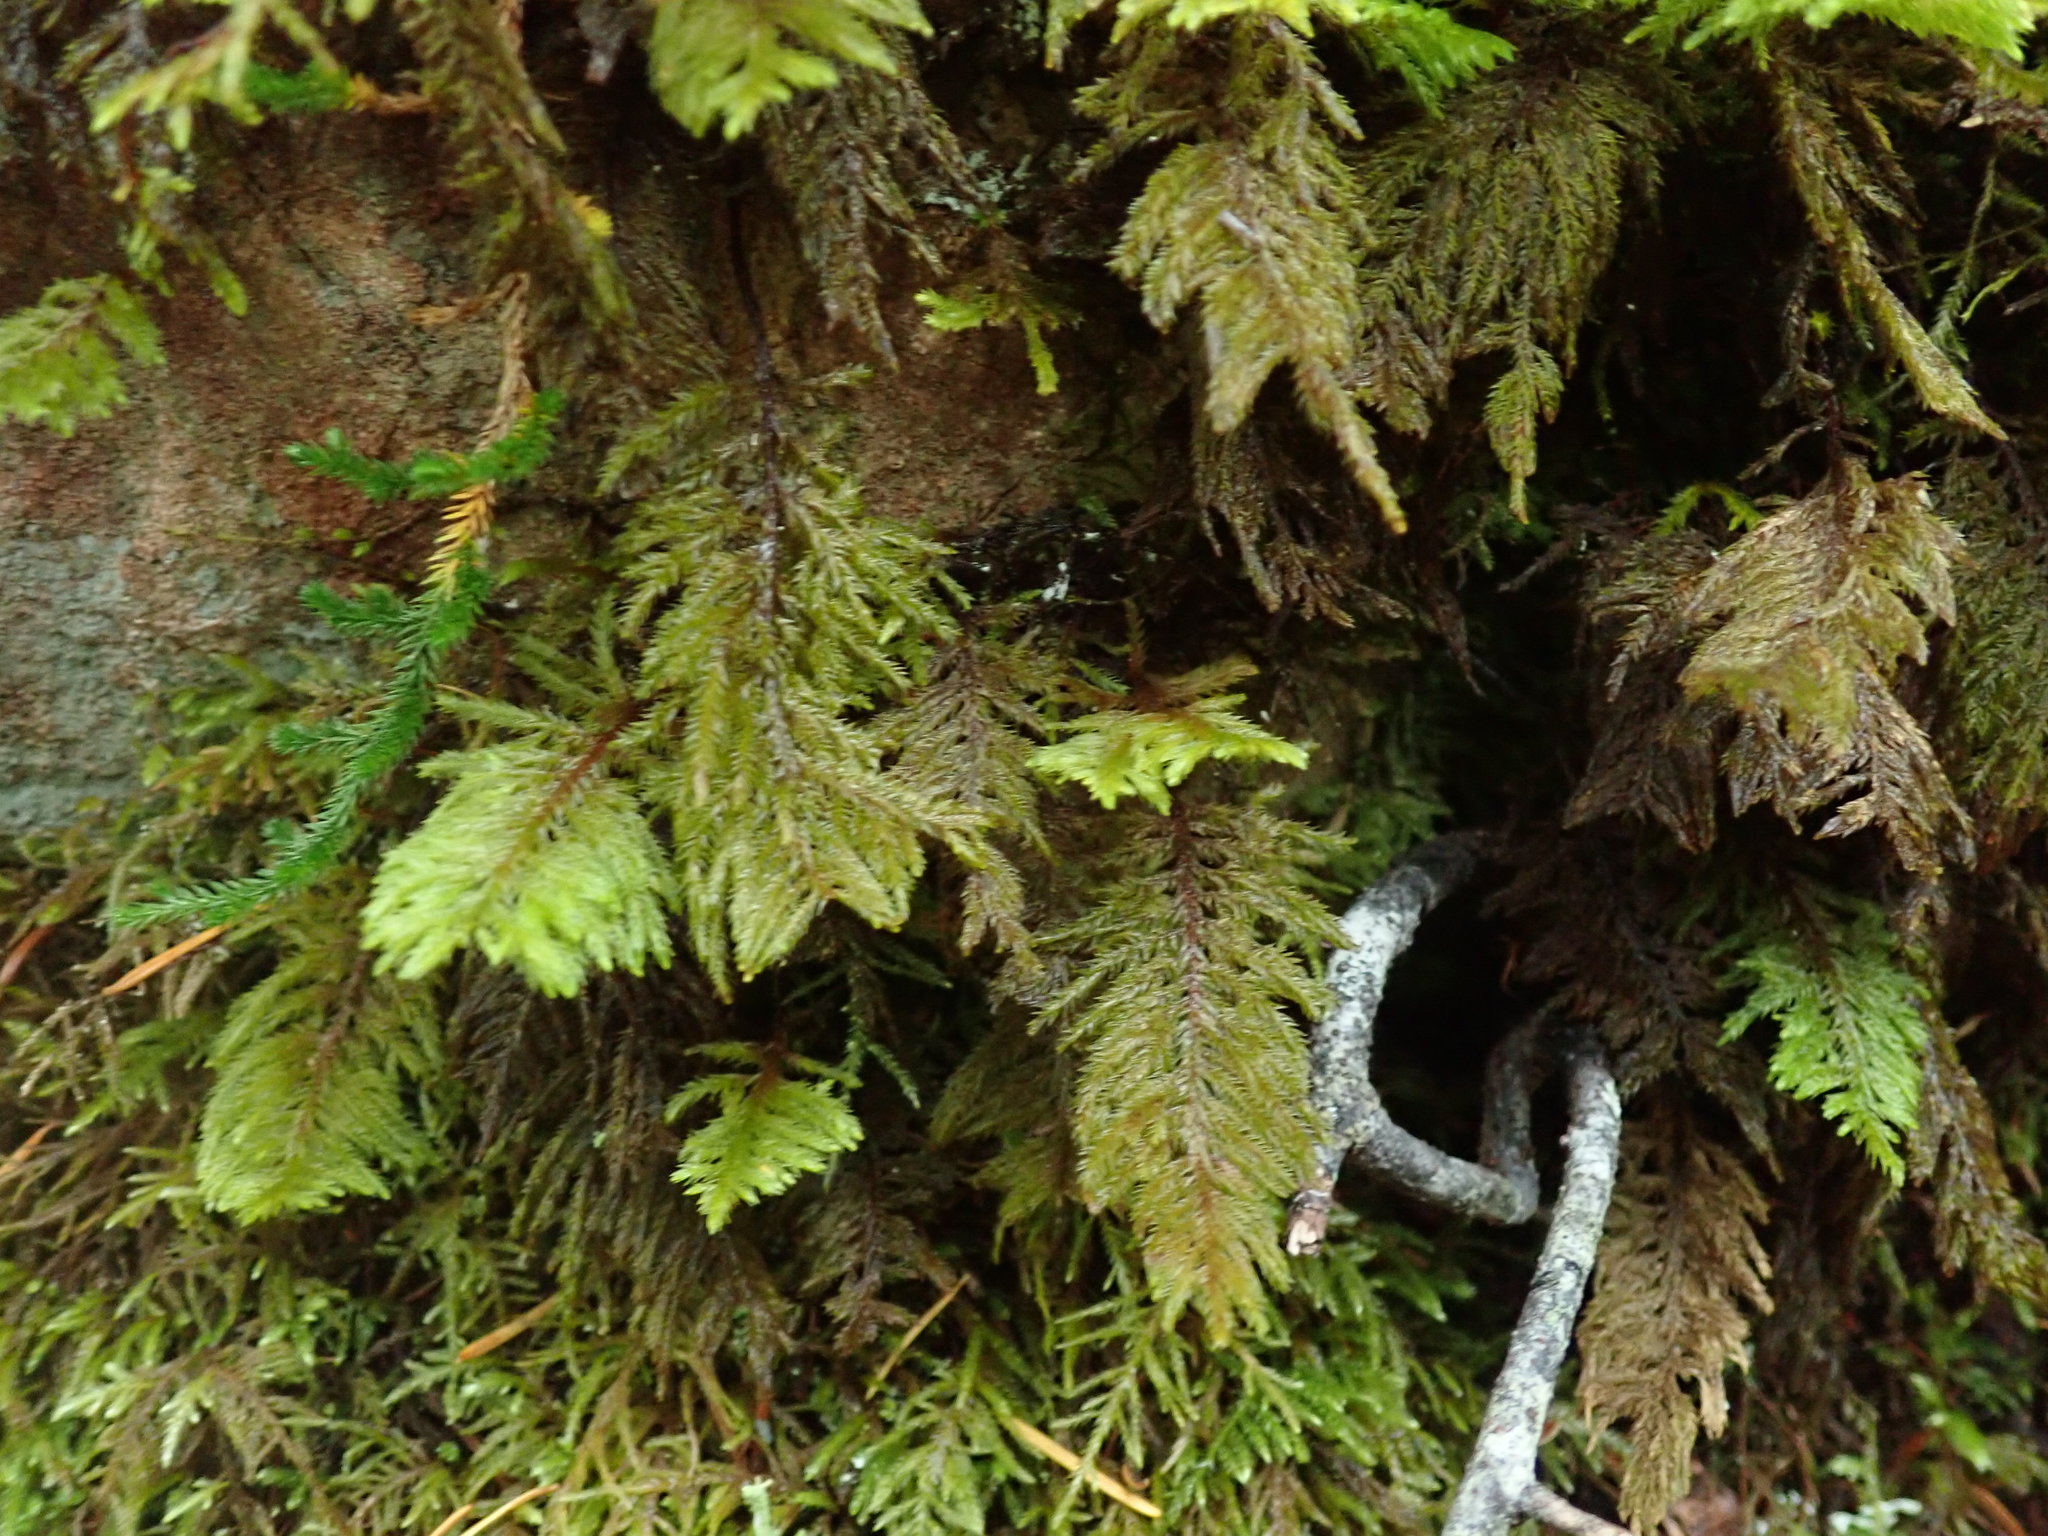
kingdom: Plantae
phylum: Bryophyta
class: Bryopsida
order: Hypnales
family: Cryphaeaceae
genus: Dendroalsia
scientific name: Dendroalsia abietina
